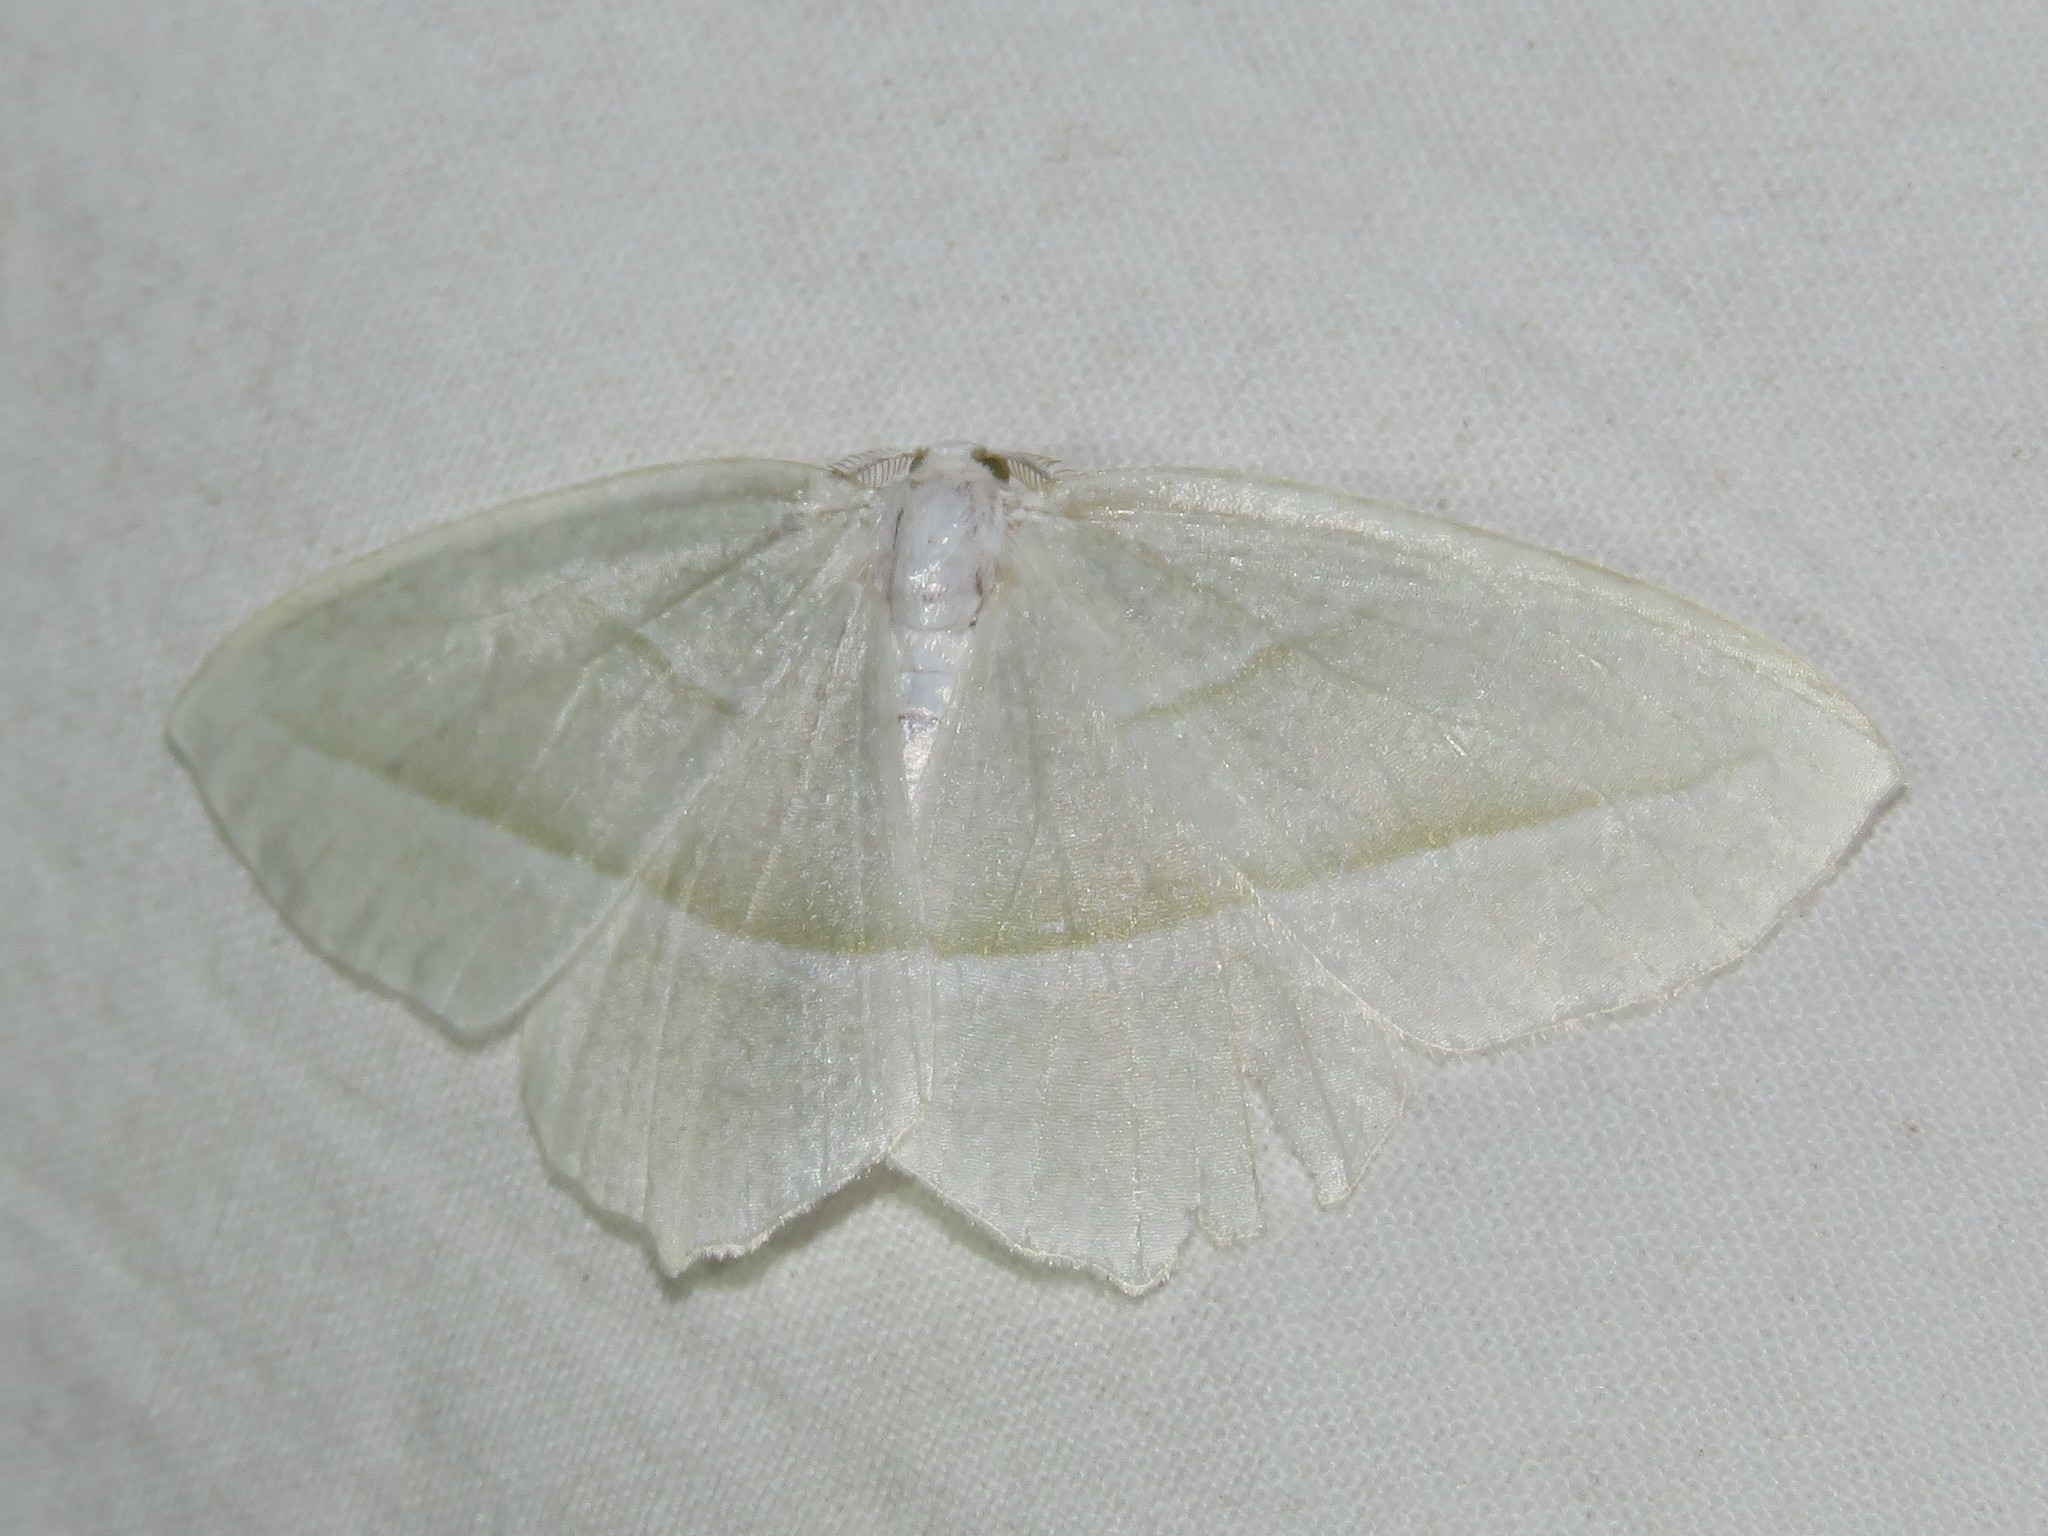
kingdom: Animalia
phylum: Arthropoda
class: Insecta
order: Lepidoptera
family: Geometridae
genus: Campaea
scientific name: Campaea perlata
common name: Fringed looper
